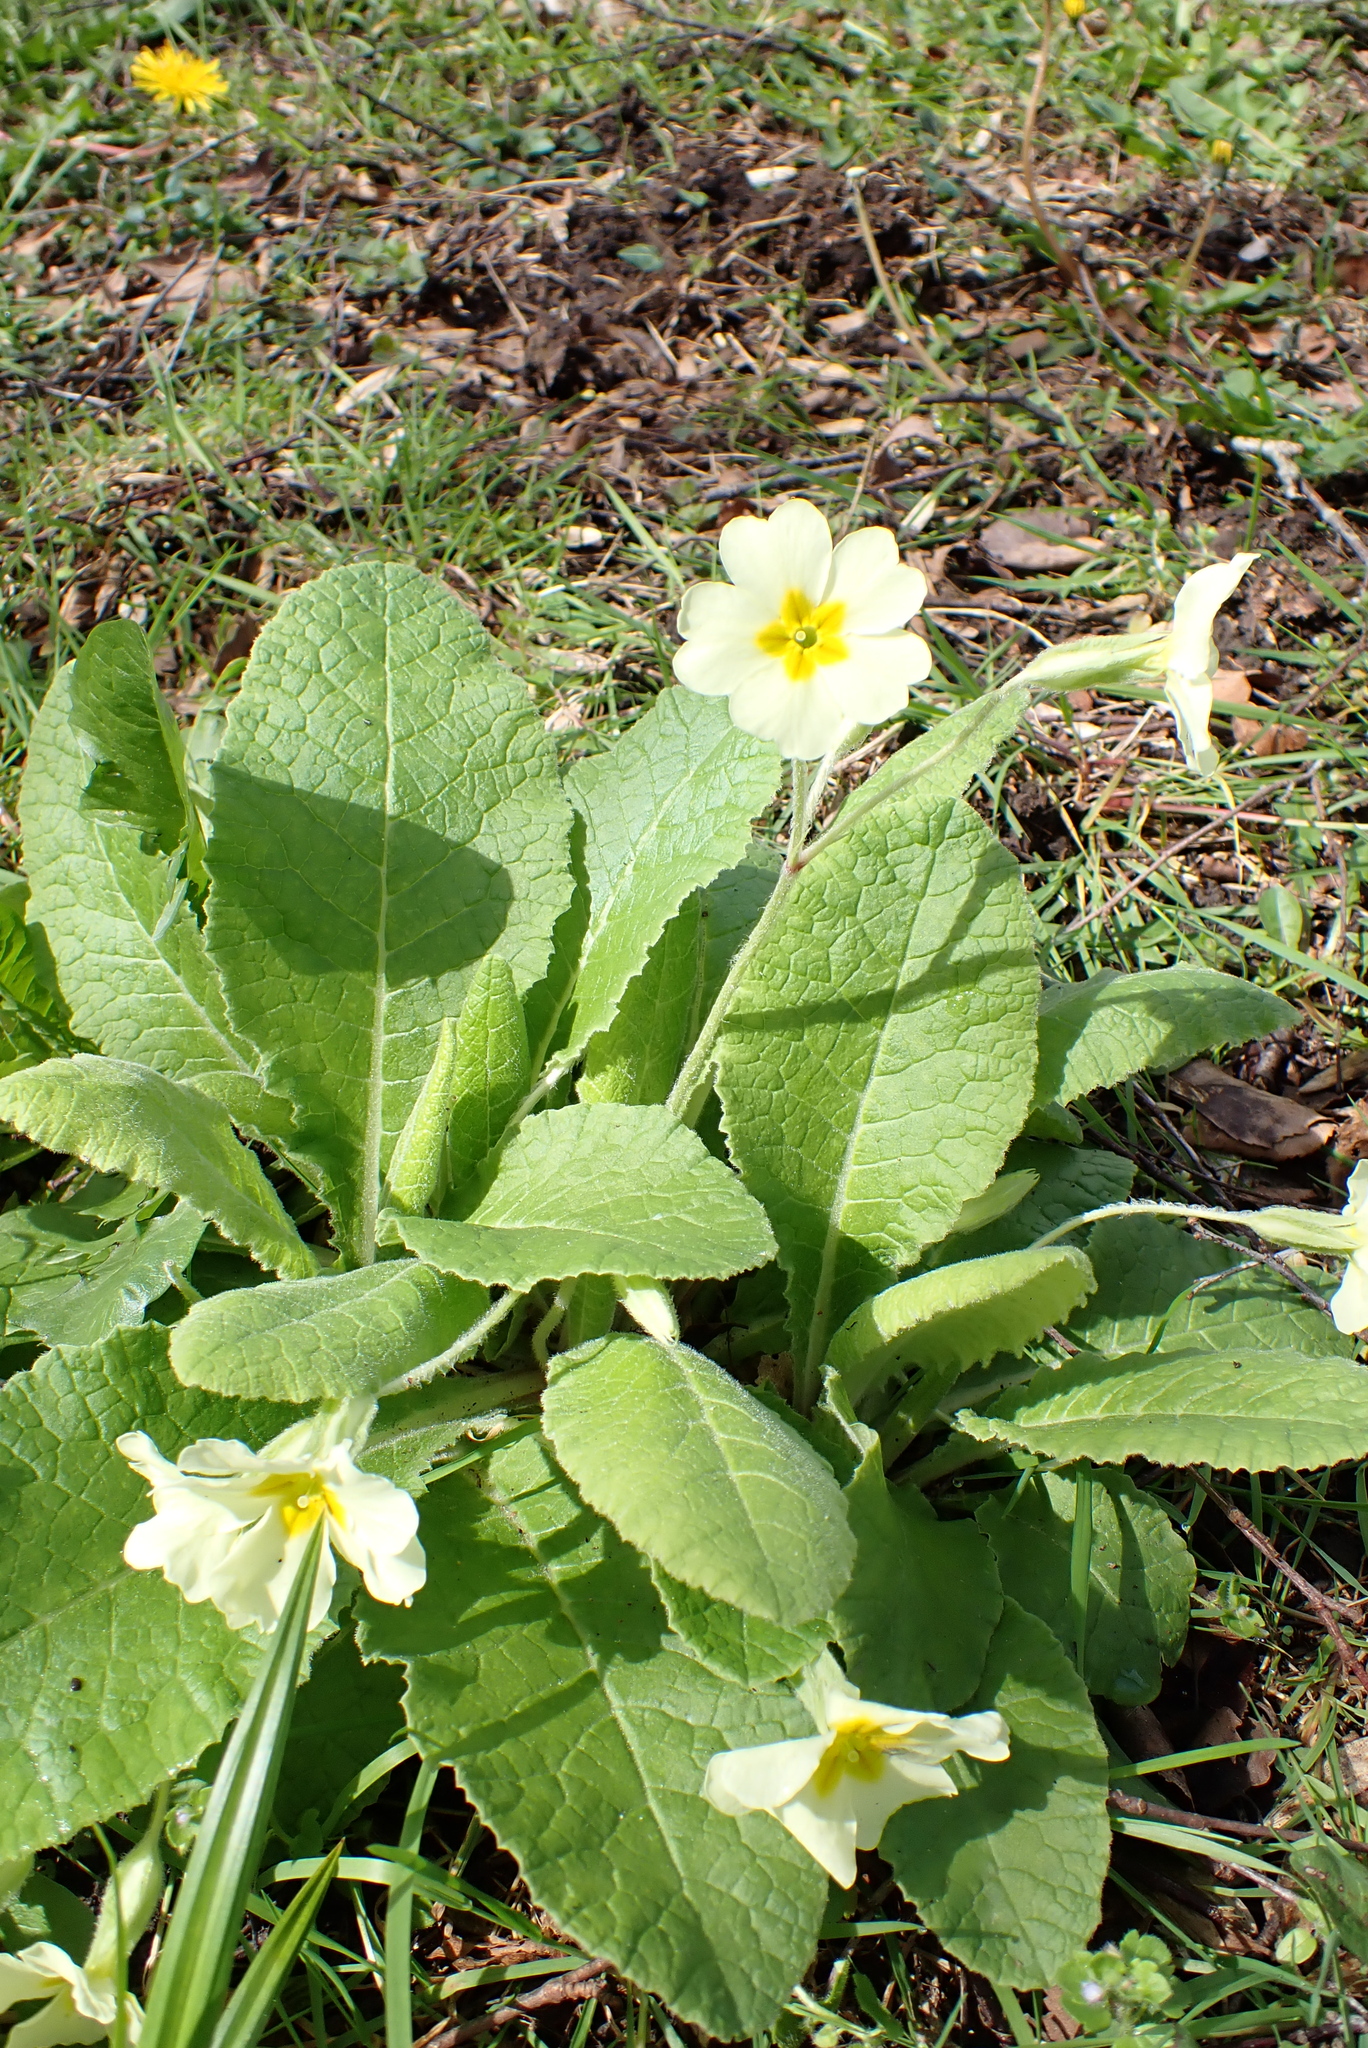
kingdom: Plantae
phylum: Tracheophyta
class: Magnoliopsida
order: Ericales
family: Primulaceae
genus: Primula
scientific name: Primula vulgaris
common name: Primrose
